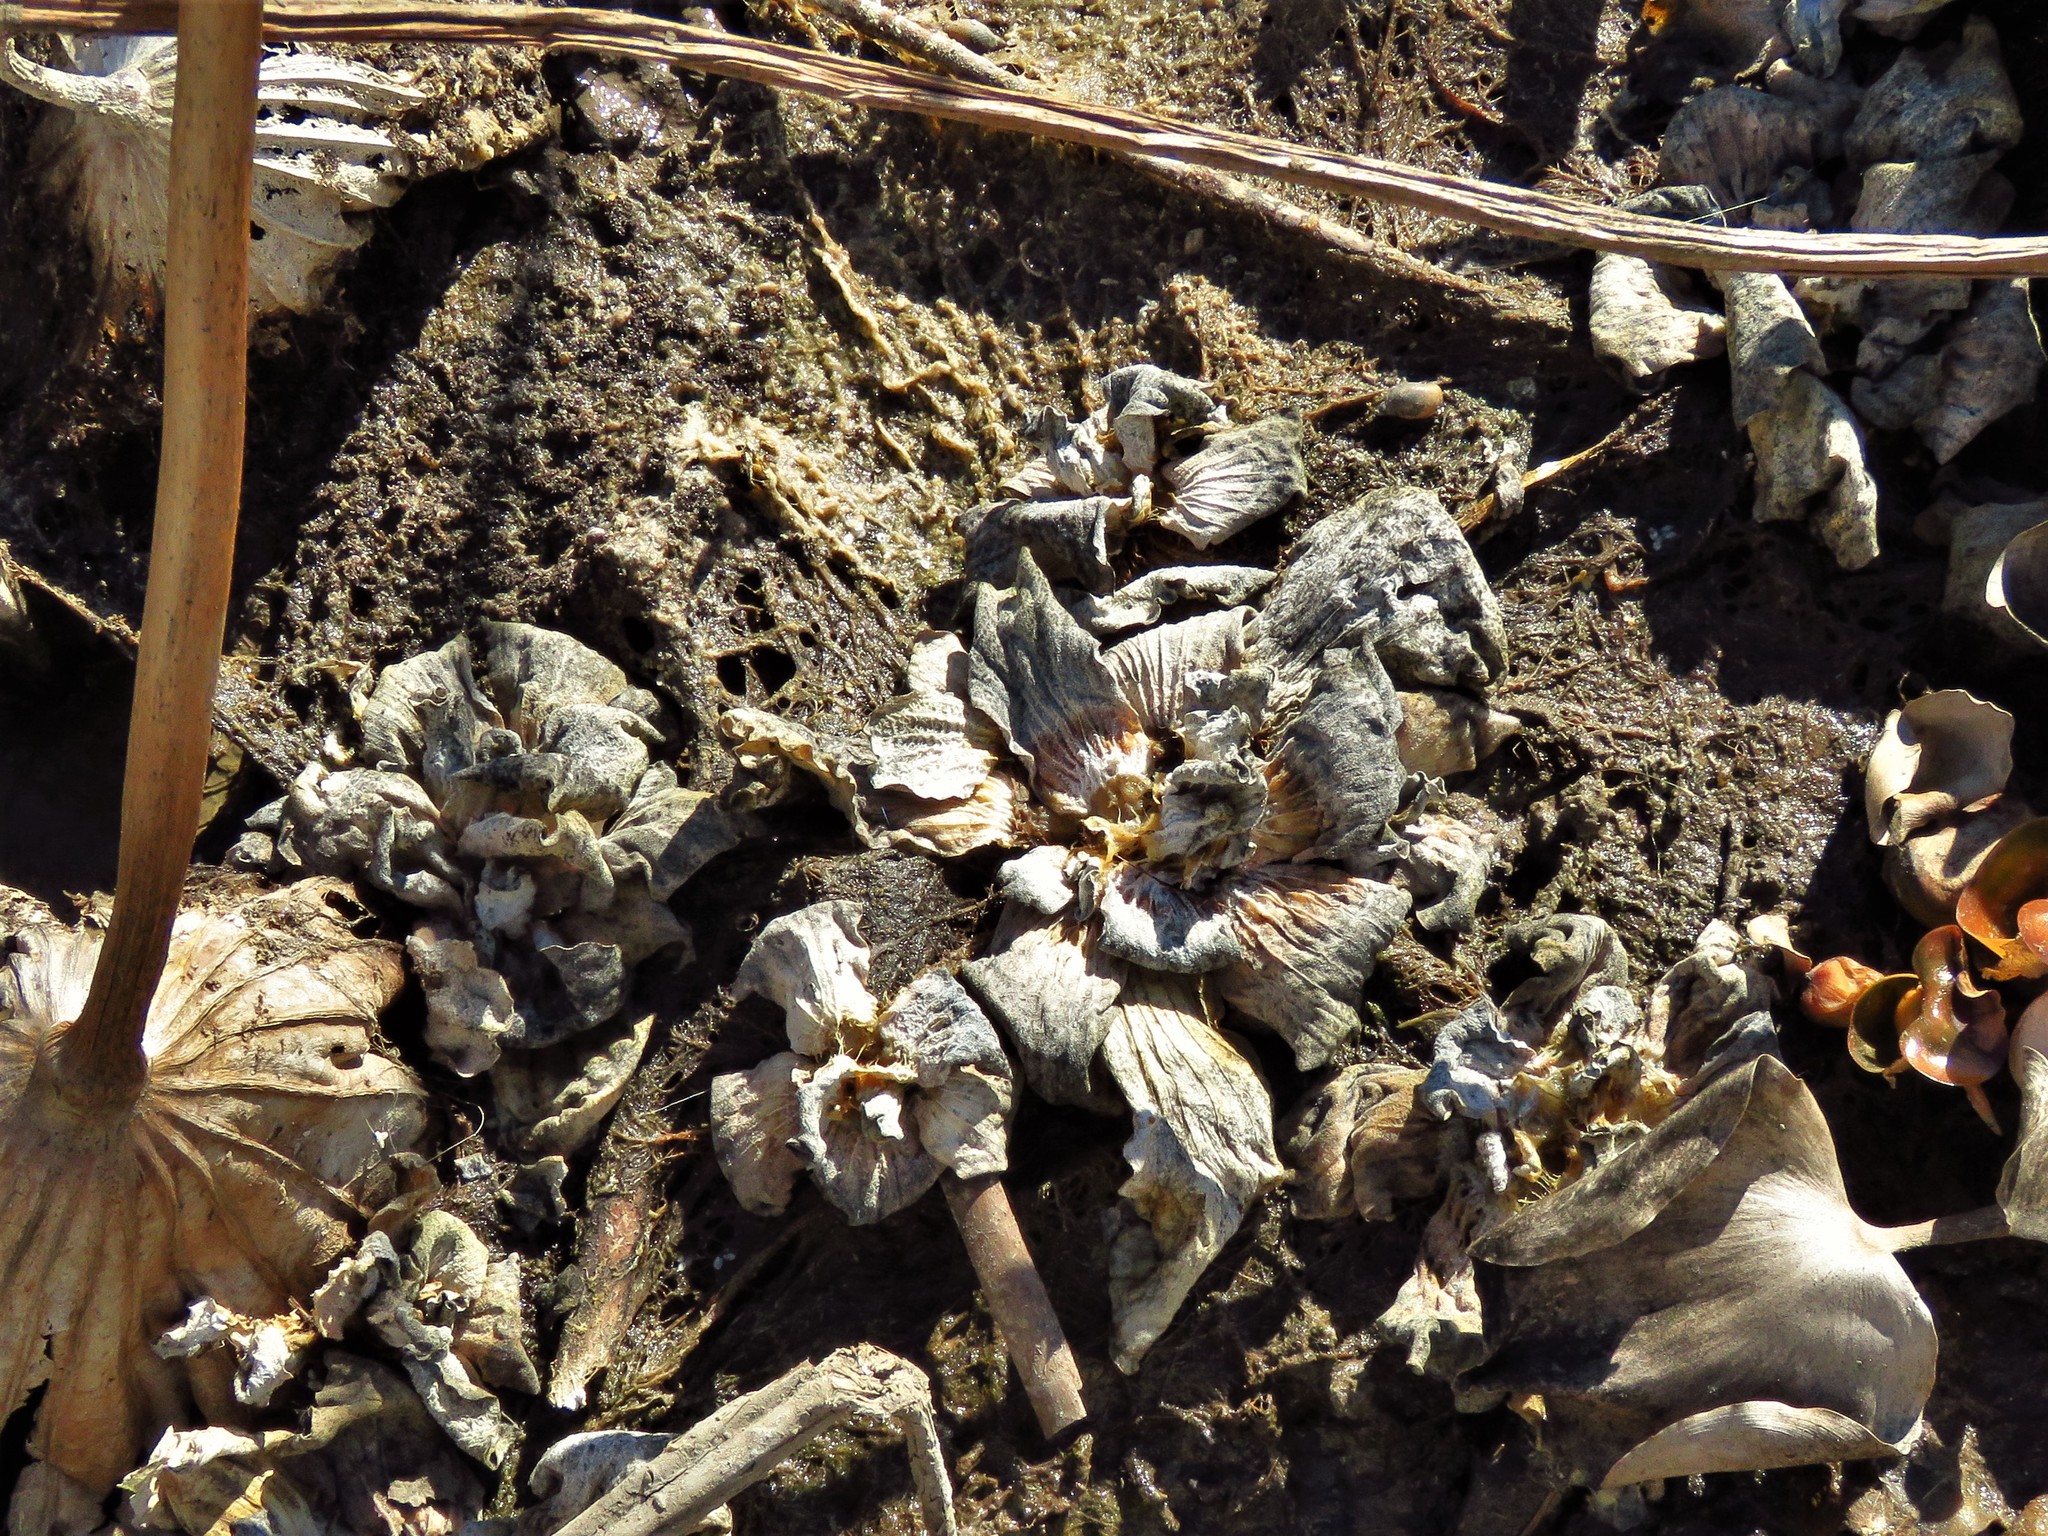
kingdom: Plantae
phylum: Tracheophyta
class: Liliopsida
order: Alismatales
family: Araceae
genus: Pistia
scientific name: Pistia stratiotes
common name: Water lettuce
